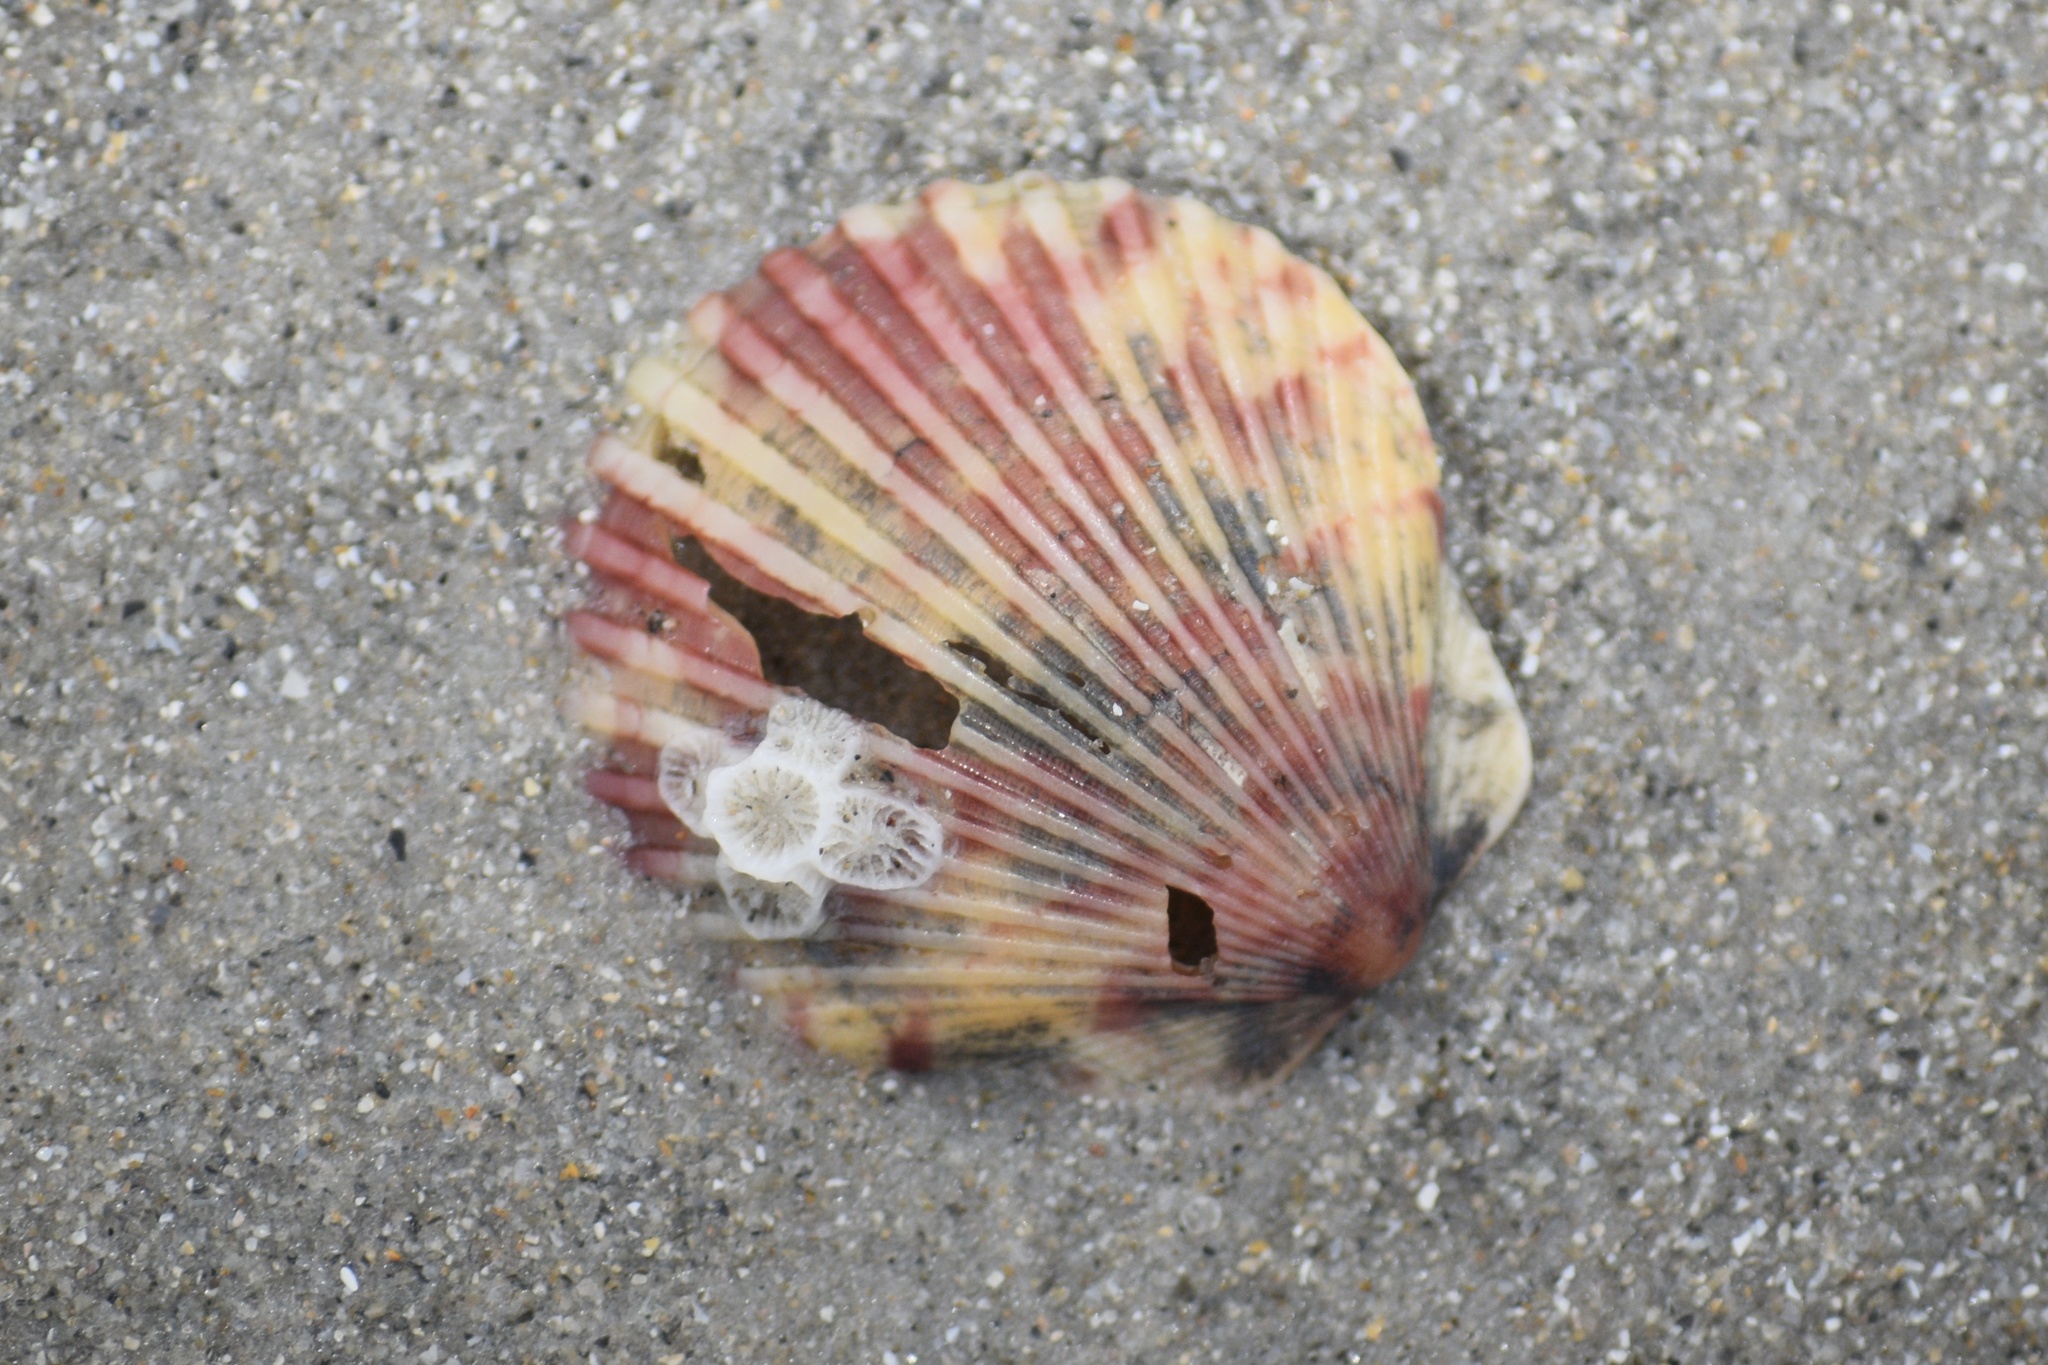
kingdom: Animalia
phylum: Mollusca
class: Bivalvia
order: Pectinida
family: Pectinidae
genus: Argopecten
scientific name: Argopecten gibbus
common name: Atlantic calico scallop
